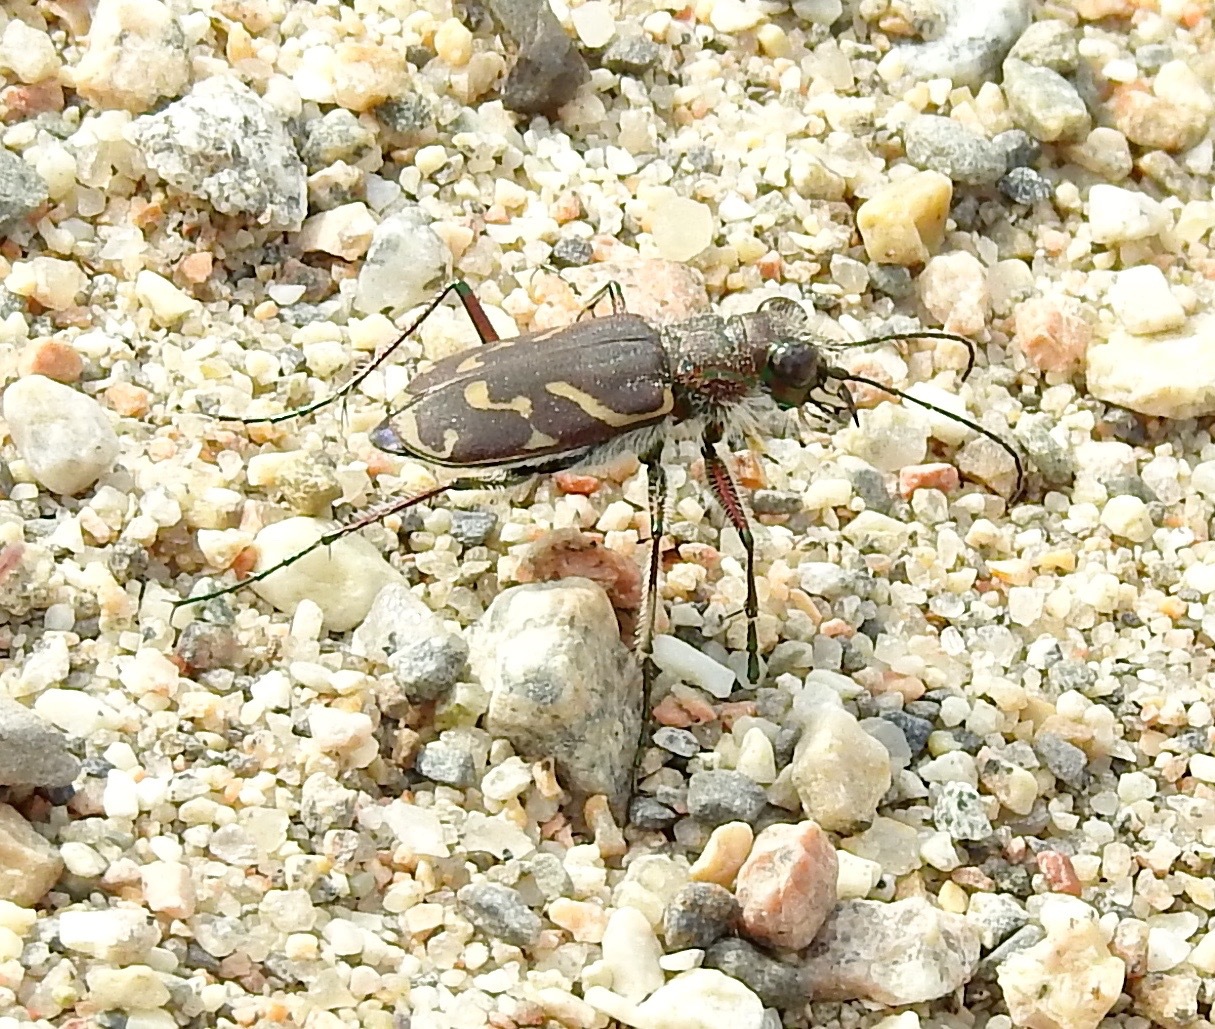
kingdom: Animalia
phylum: Arthropoda
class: Insecta
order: Coleoptera
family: Carabidae
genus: Cicindela
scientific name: Cicindela tranquebarica
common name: Oblique-lined tiger beetle
